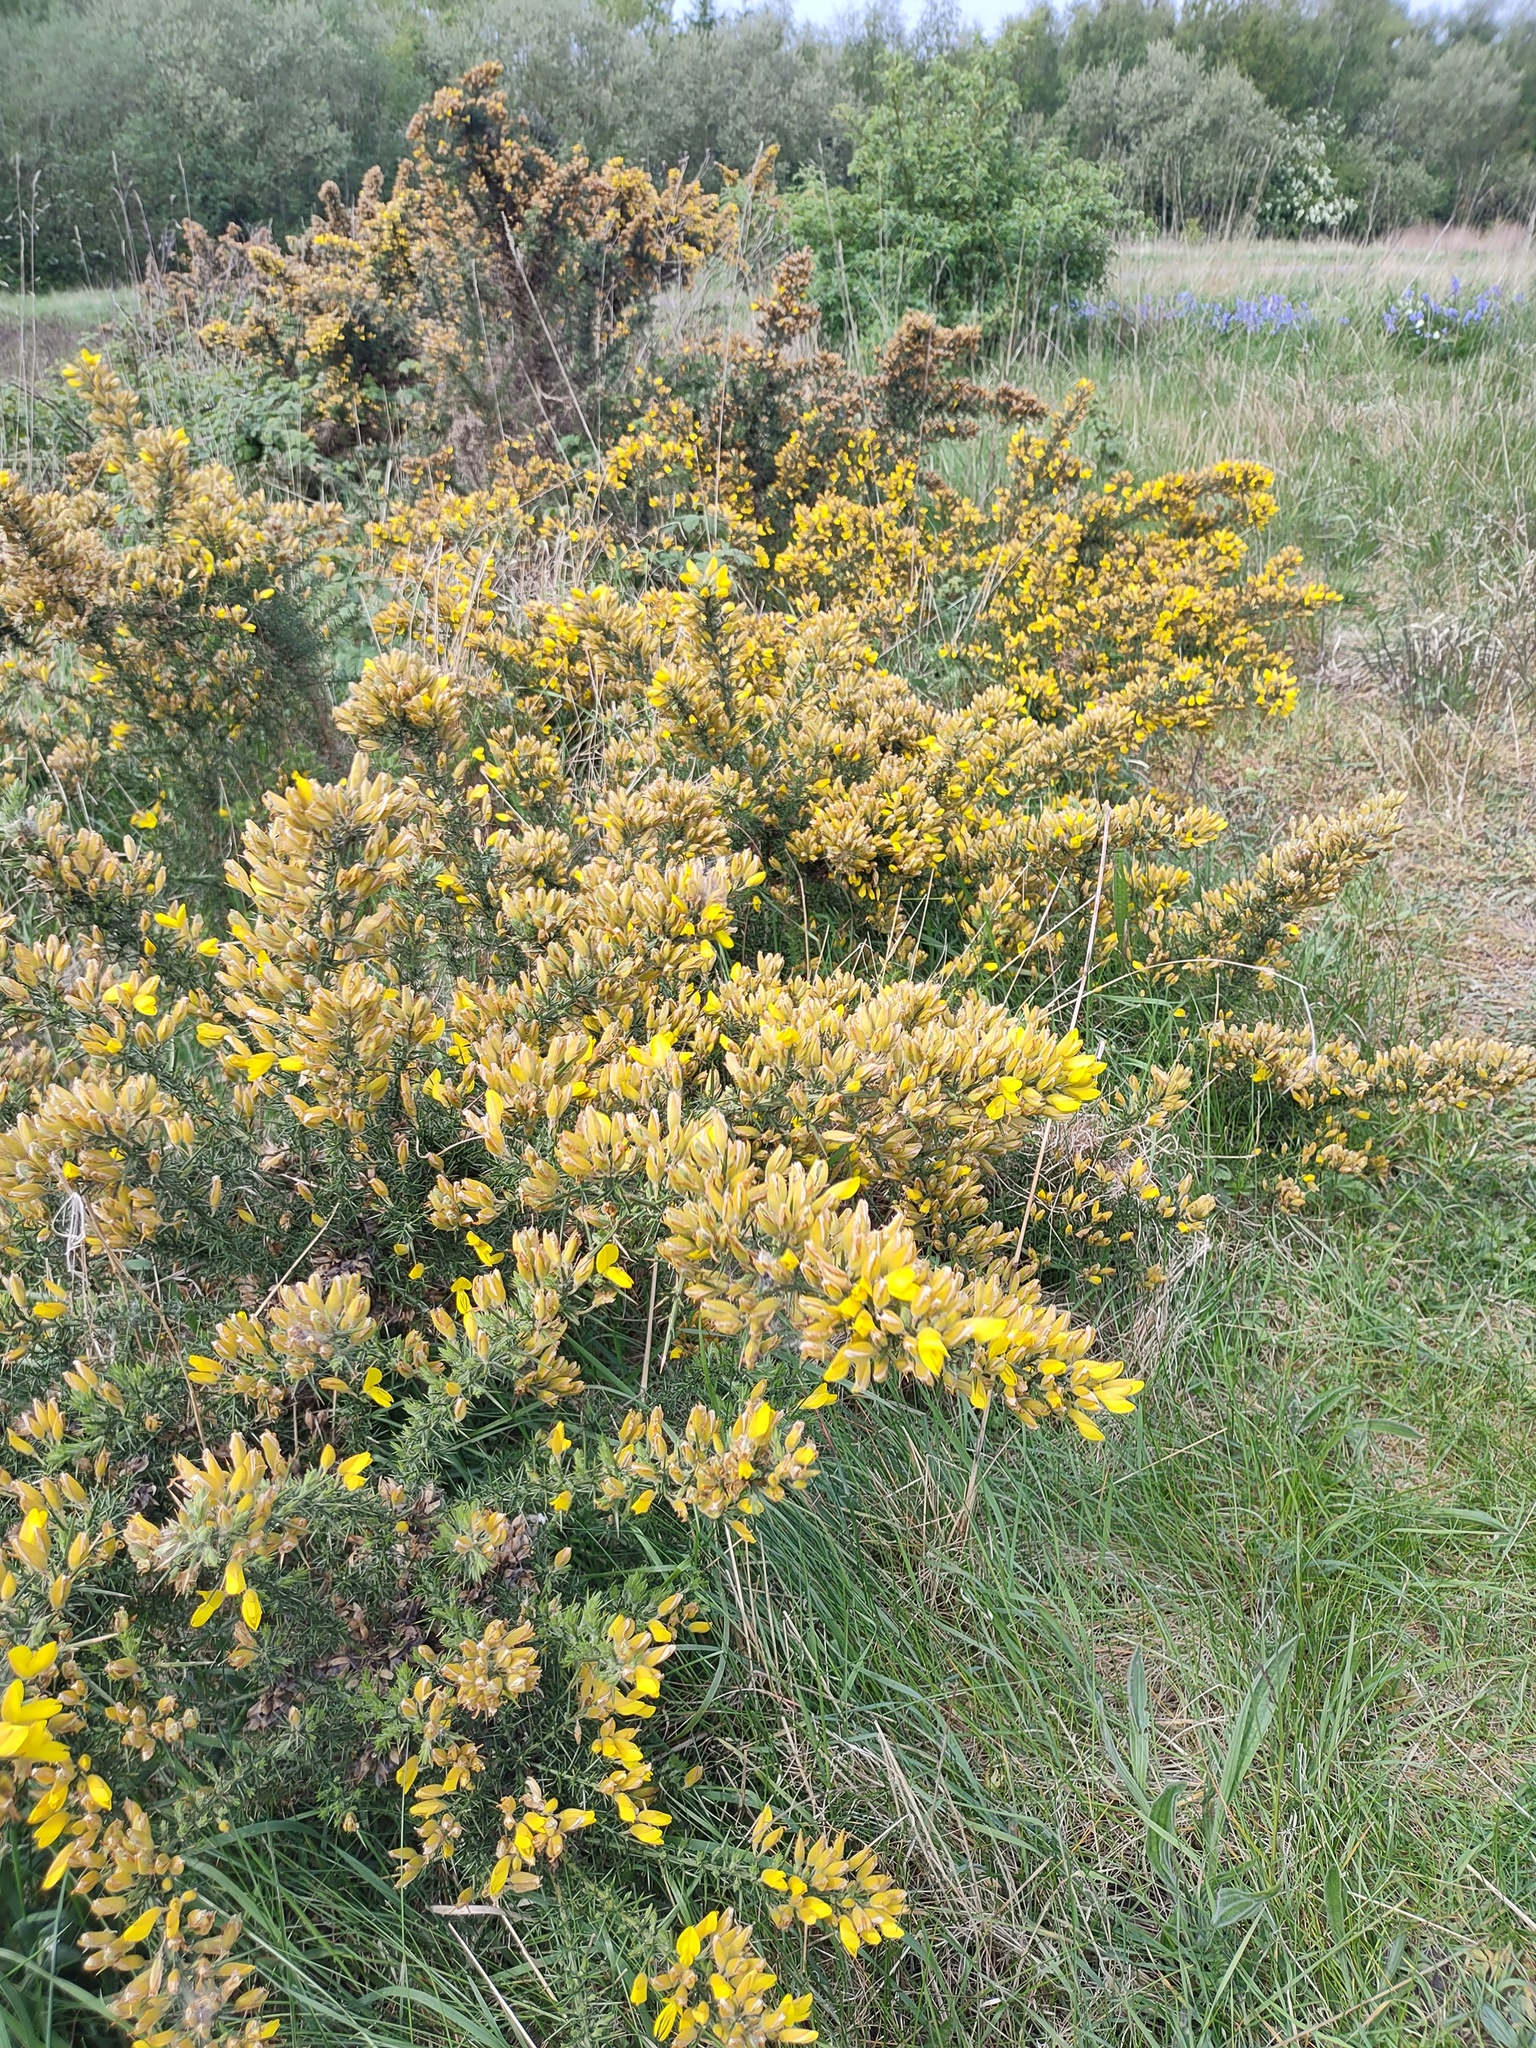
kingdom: Plantae
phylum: Tracheophyta
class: Magnoliopsida
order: Fabales
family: Fabaceae
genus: Ulex
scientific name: Ulex europaeus
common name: Common gorse
